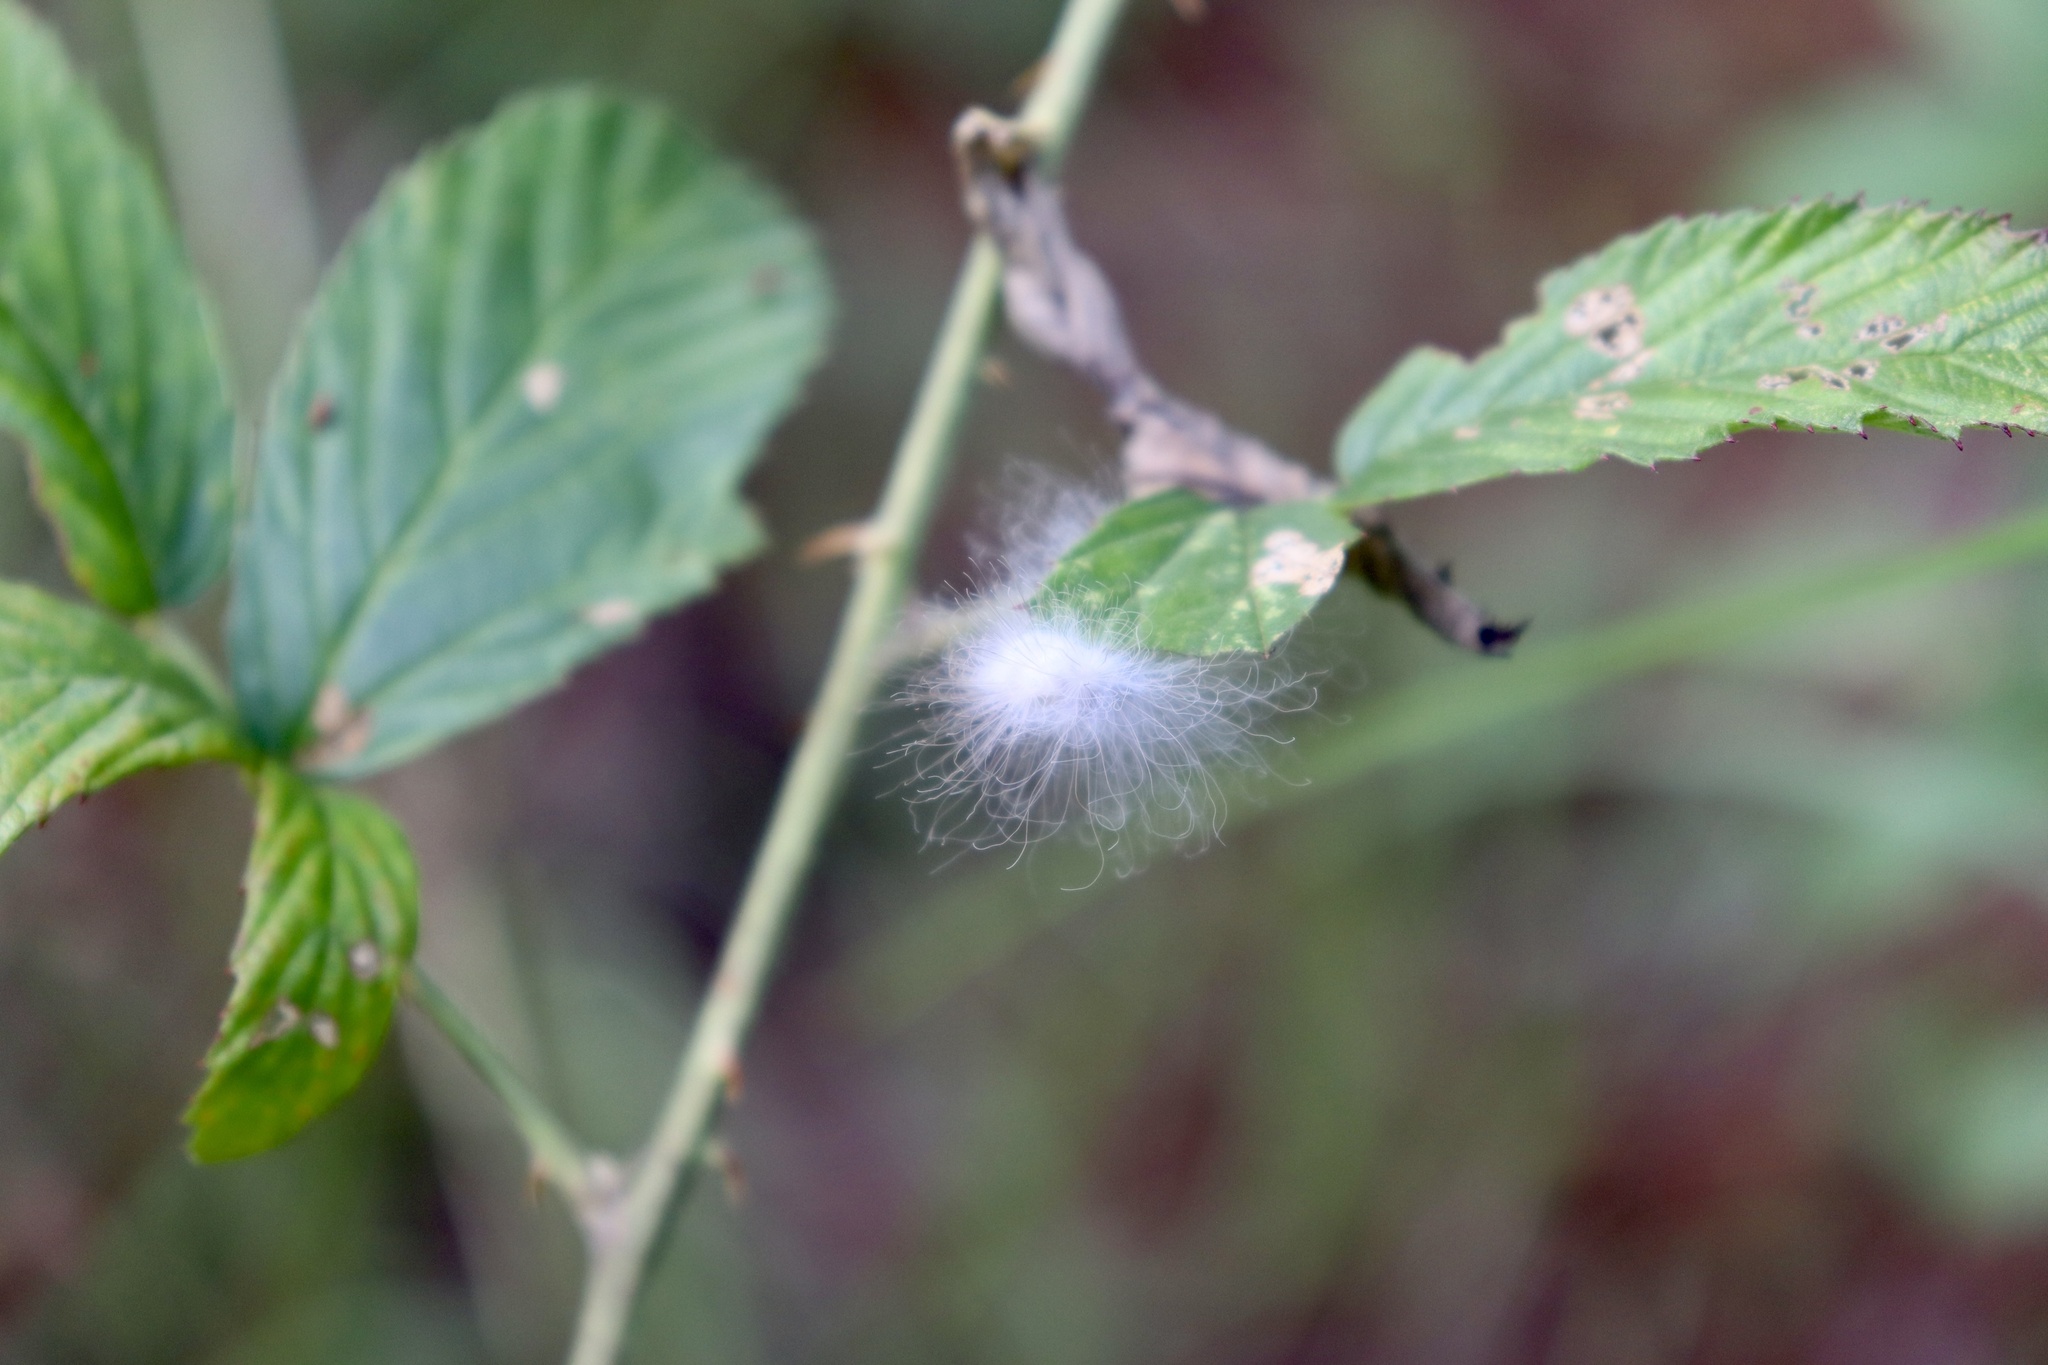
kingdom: Animalia
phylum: Arthropoda
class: Insecta
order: Lepidoptera
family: Megalopygidae
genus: Megalopyge
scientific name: Megalopyge crispata
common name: Black-waved flannel moth
